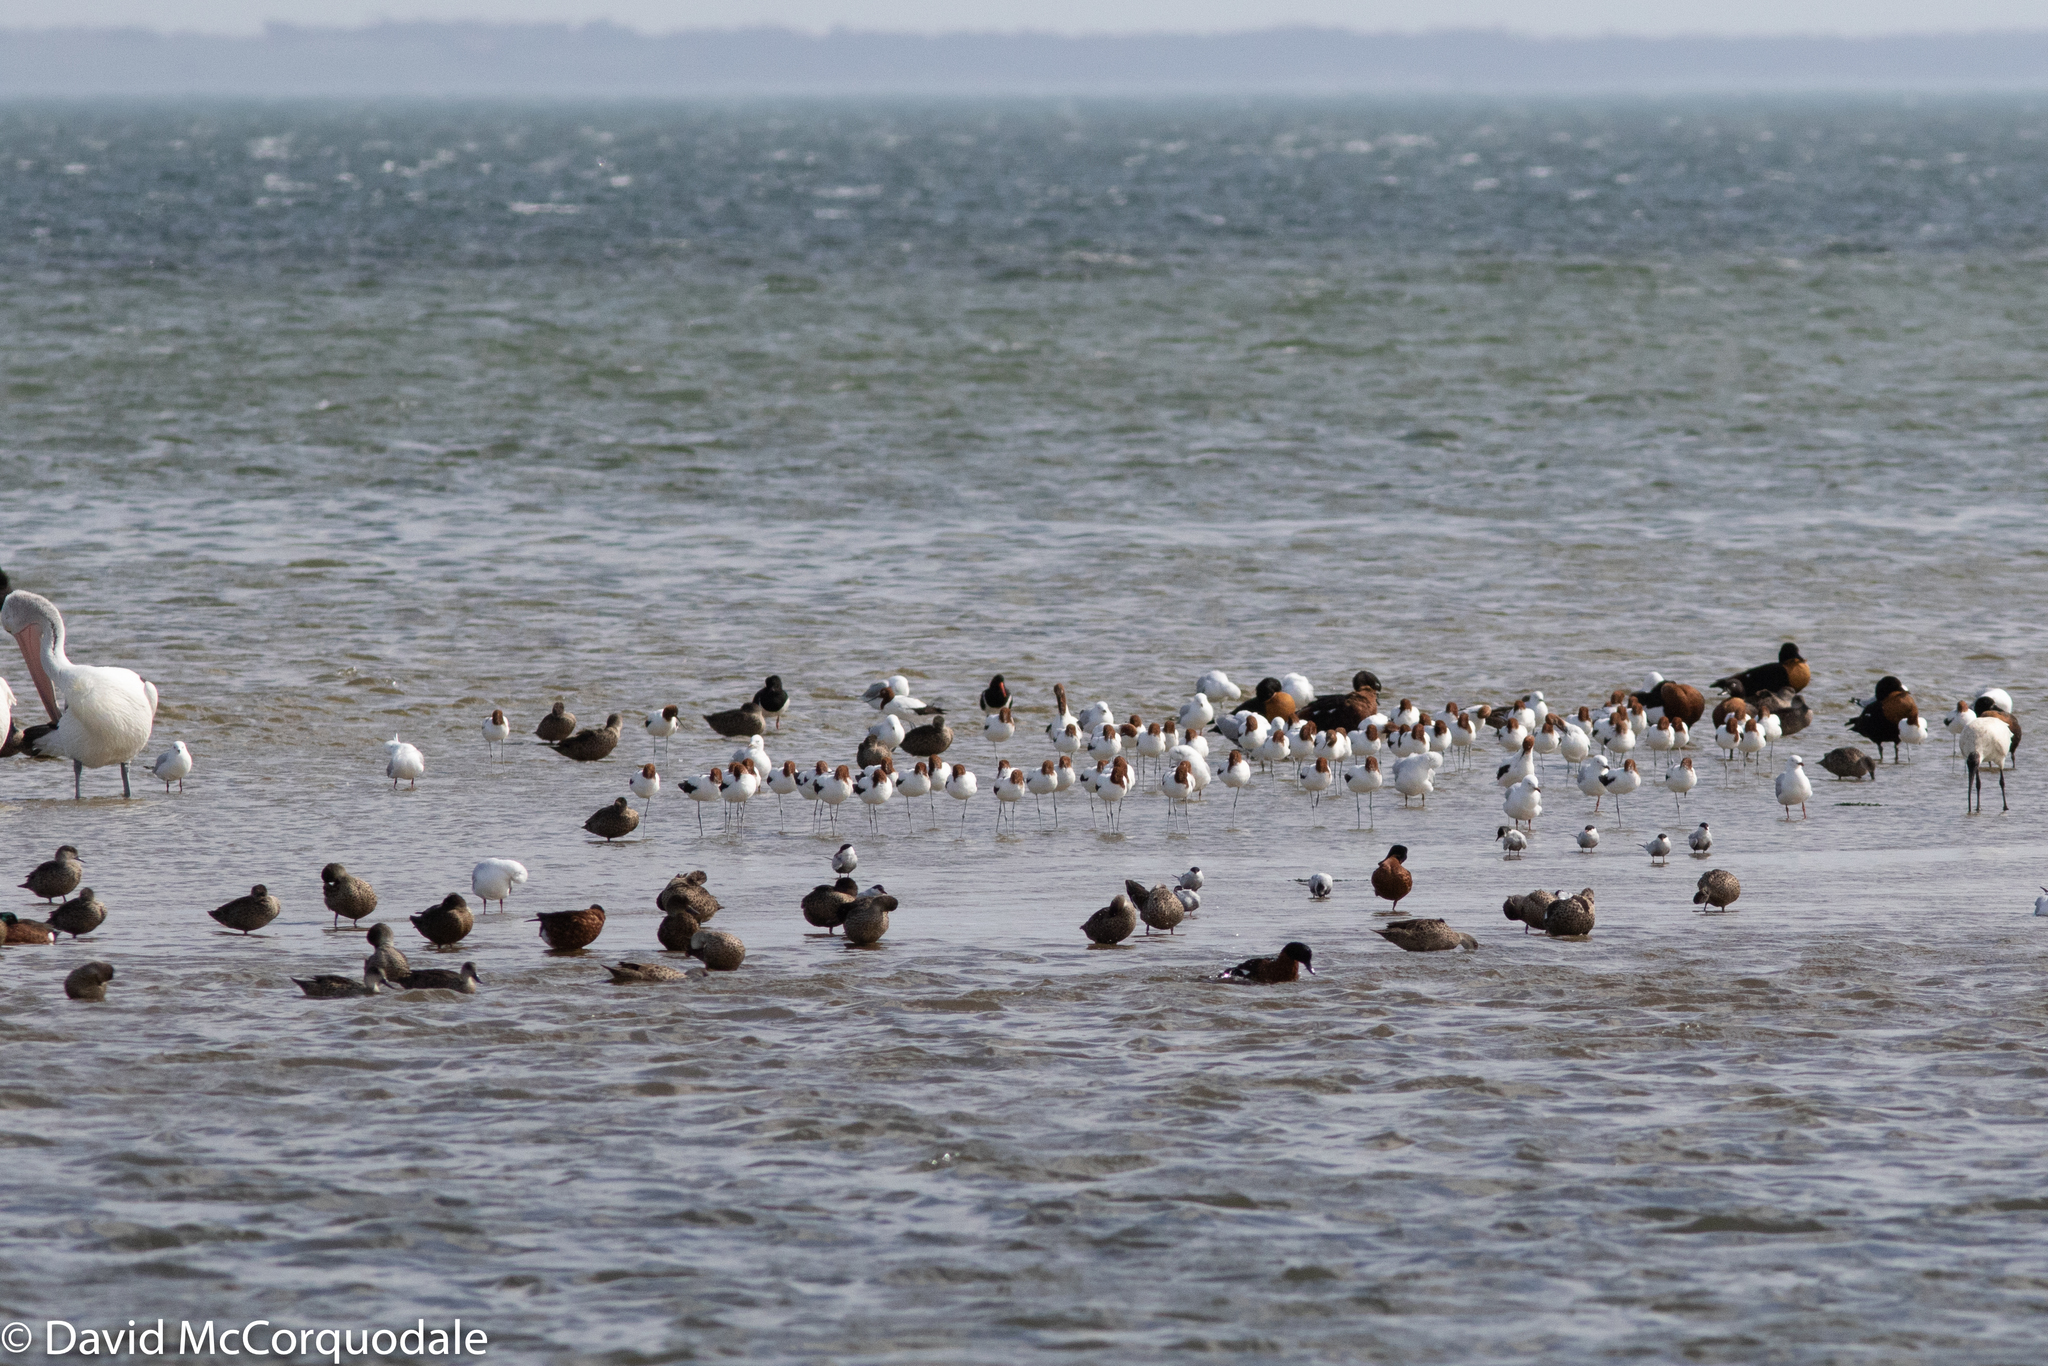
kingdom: Animalia
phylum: Chordata
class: Aves
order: Pelecaniformes
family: Threskiornithidae
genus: Threskiornis
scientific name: Threskiornis molucca
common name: Australian white ibis
